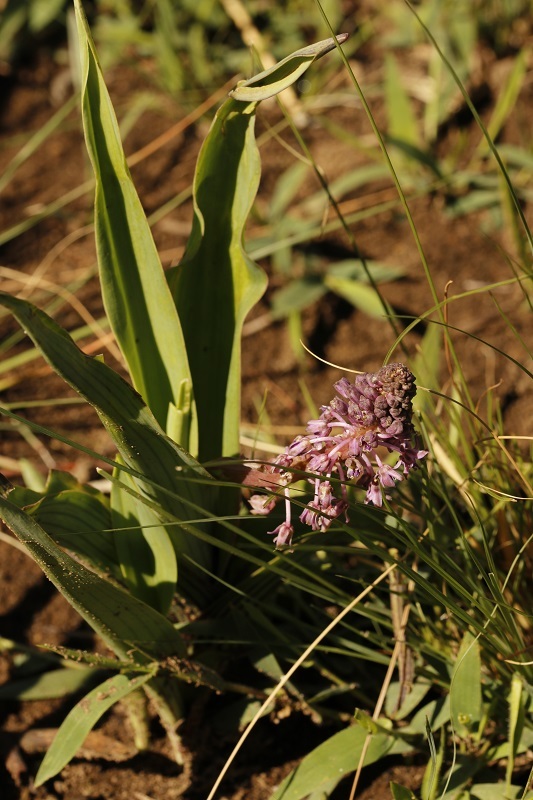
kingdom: Plantae
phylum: Tracheophyta
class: Liliopsida
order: Asparagales
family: Asparagaceae
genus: Ledebouria
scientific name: Ledebouria cooperi
